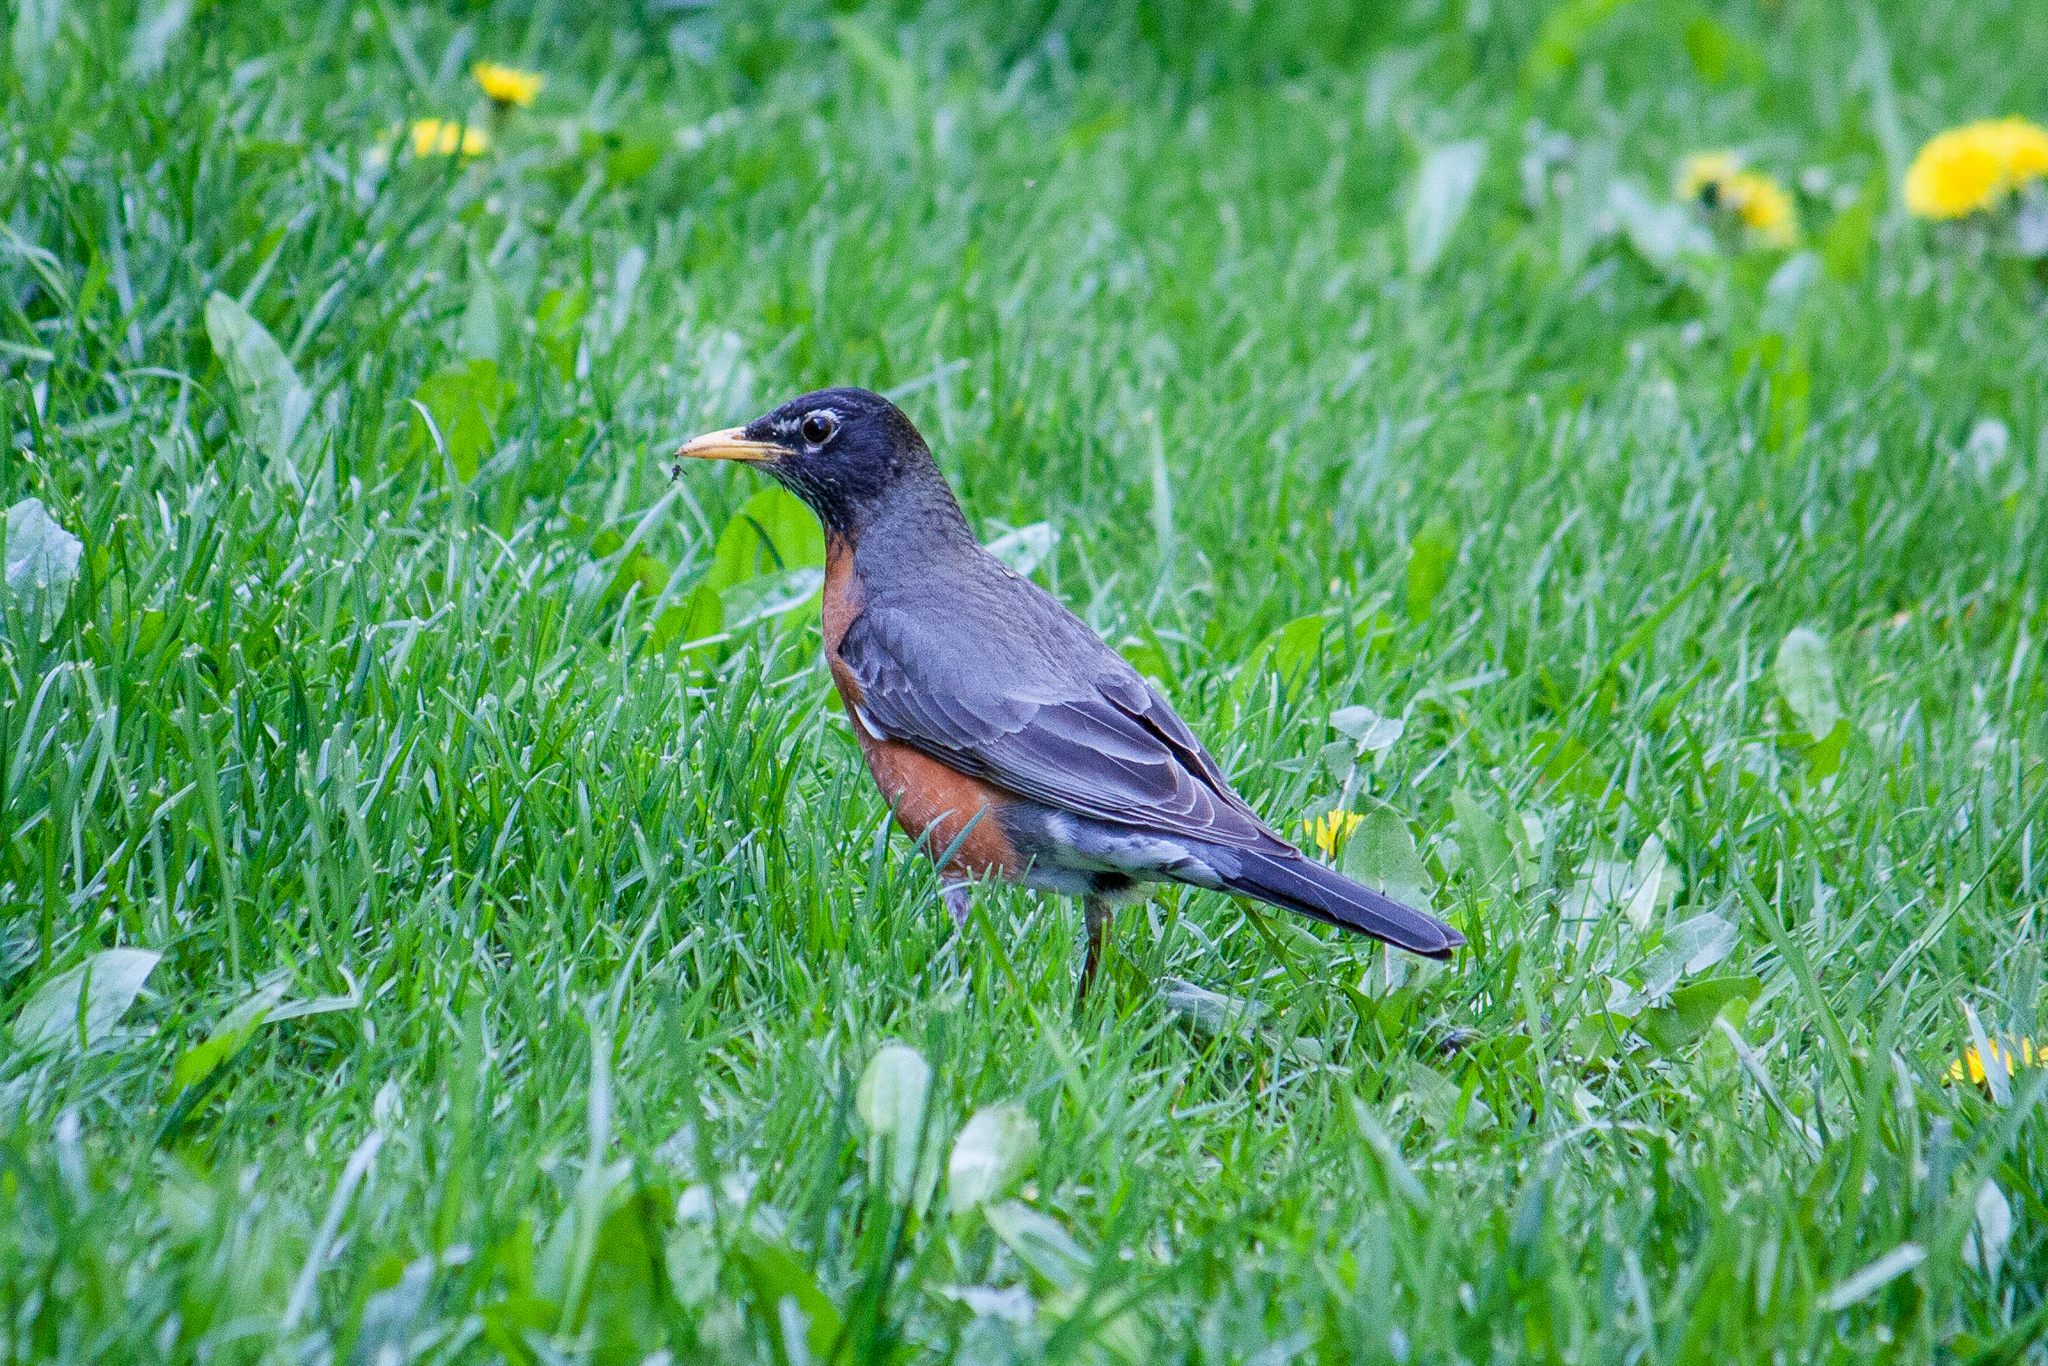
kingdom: Animalia
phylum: Chordata
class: Aves
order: Passeriformes
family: Turdidae
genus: Turdus
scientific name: Turdus migratorius
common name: American robin
